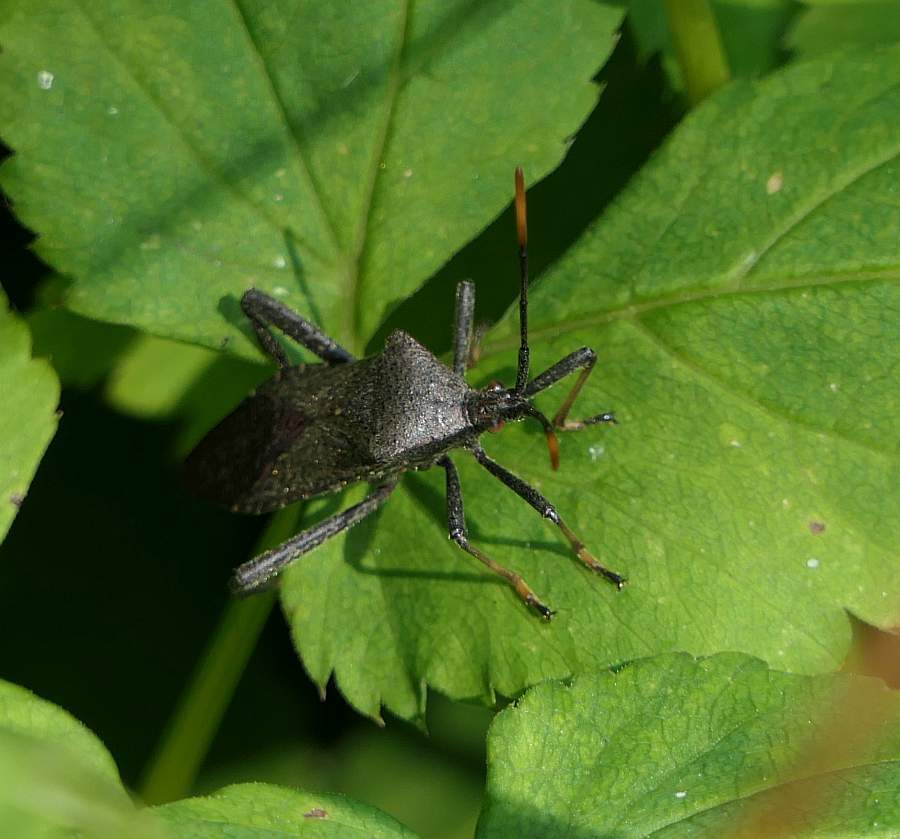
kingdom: Animalia
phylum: Arthropoda
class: Insecta
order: Hemiptera
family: Coreidae
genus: Acanthocephala
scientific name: Acanthocephala terminalis
